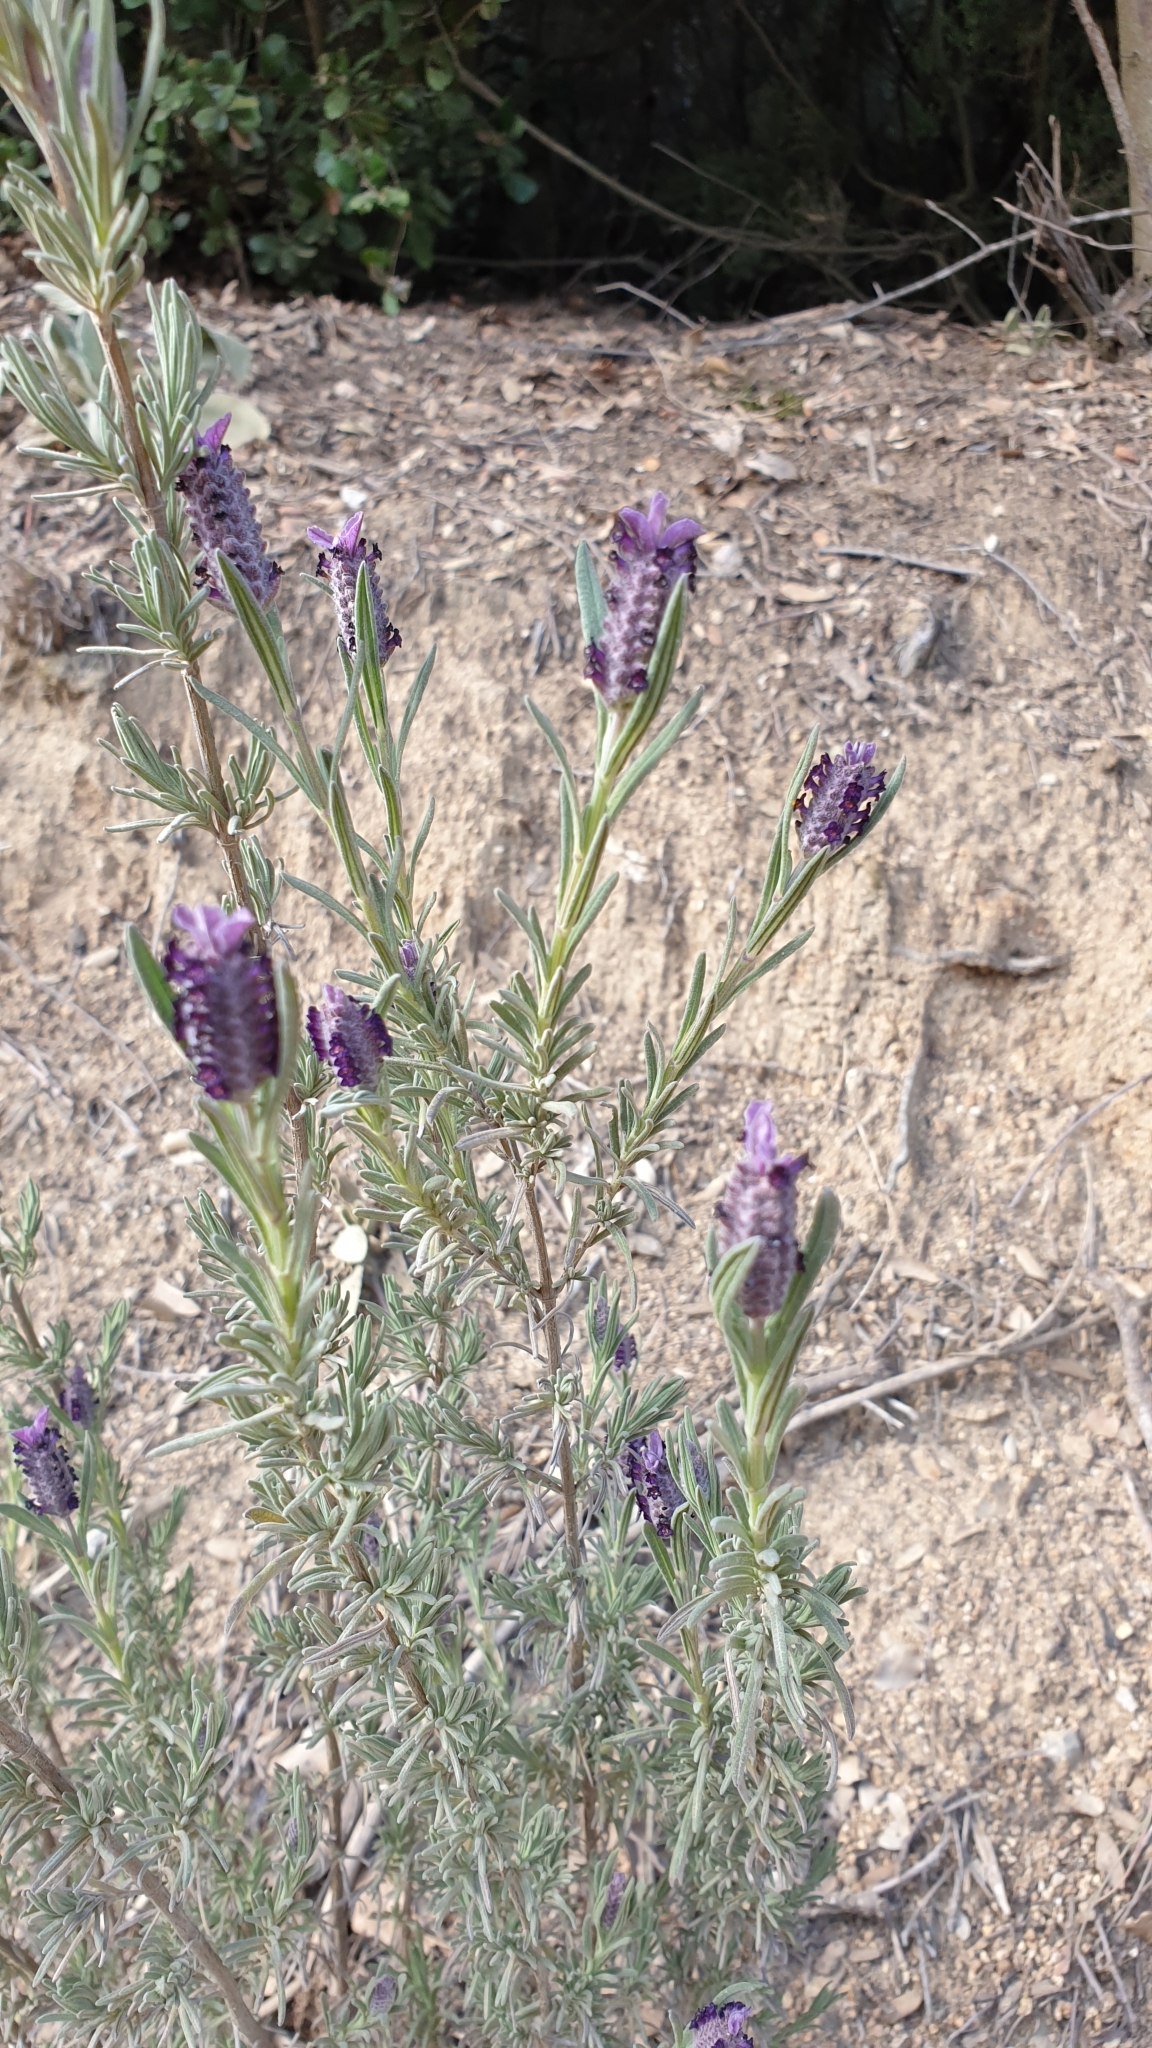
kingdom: Plantae
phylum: Tracheophyta
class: Magnoliopsida
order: Lamiales
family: Lamiaceae
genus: Lavandula
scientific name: Lavandula stoechas
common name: French lavender
